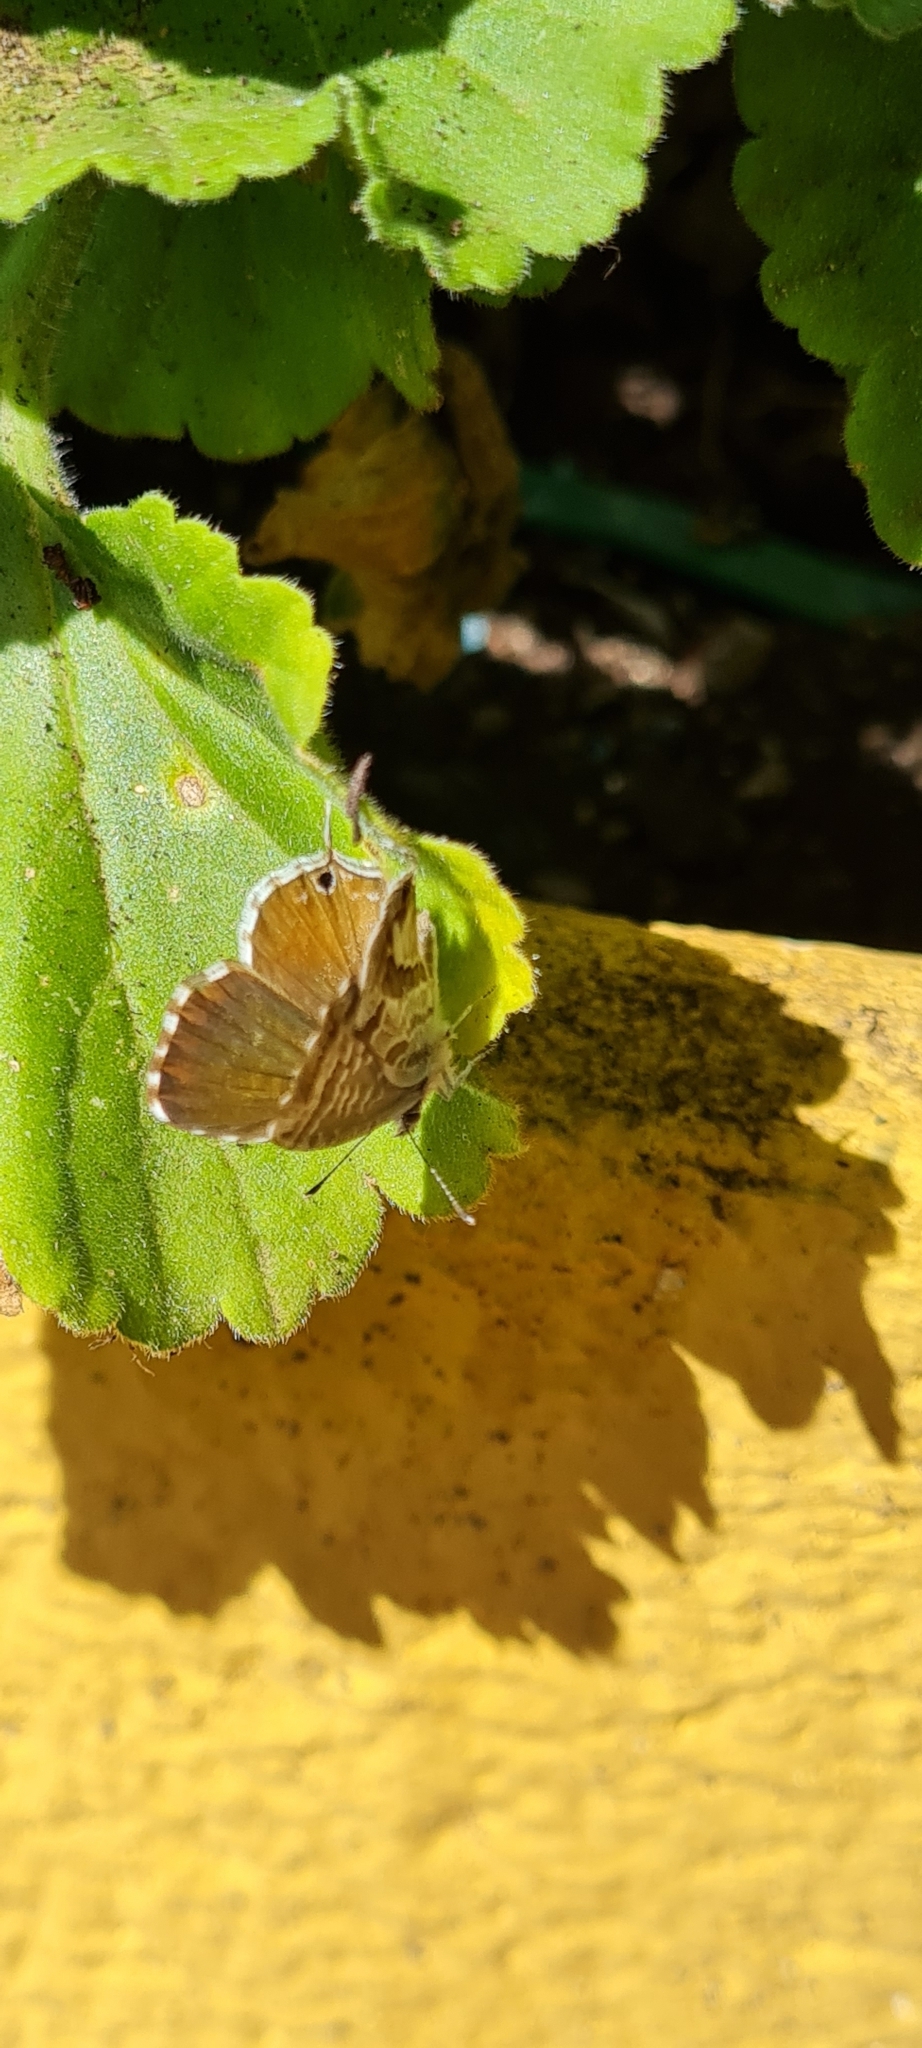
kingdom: Animalia
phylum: Arthropoda
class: Insecta
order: Lepidoptera
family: Lycaenidae
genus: Cacyreus
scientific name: Cacyreus marshalli
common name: Geranium bronze
